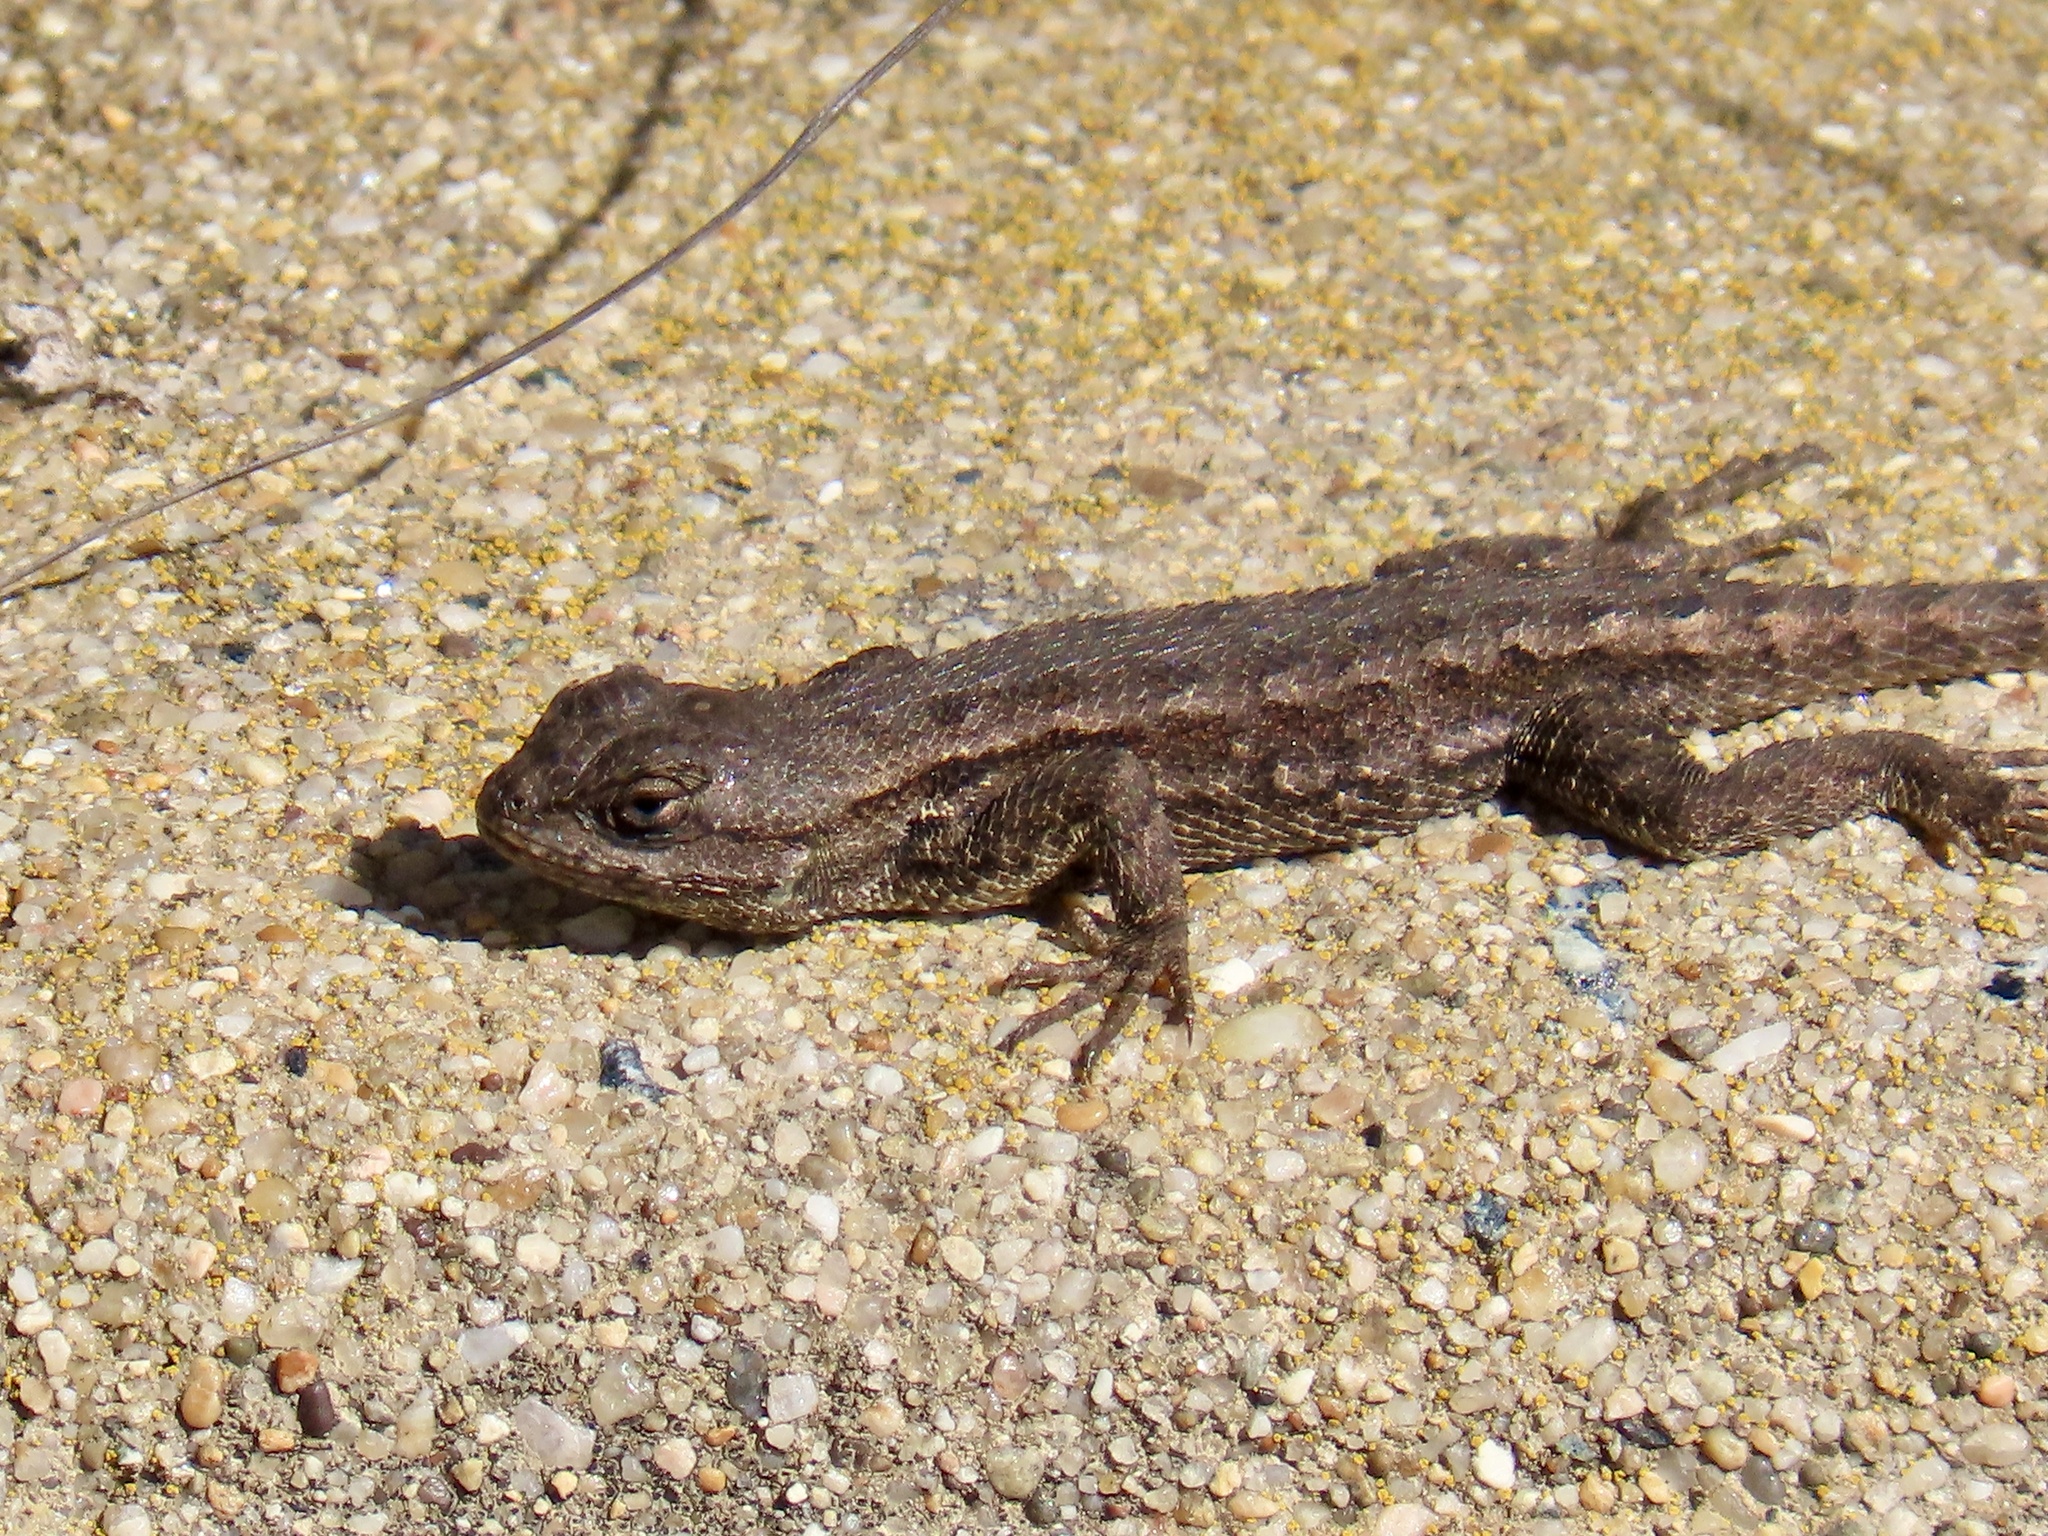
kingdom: Animalia
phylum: Chordata
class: Squamata
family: Phrynosomatidae
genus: Sceloporus
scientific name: Sceloporus occidentalis
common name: Western fence lizard
